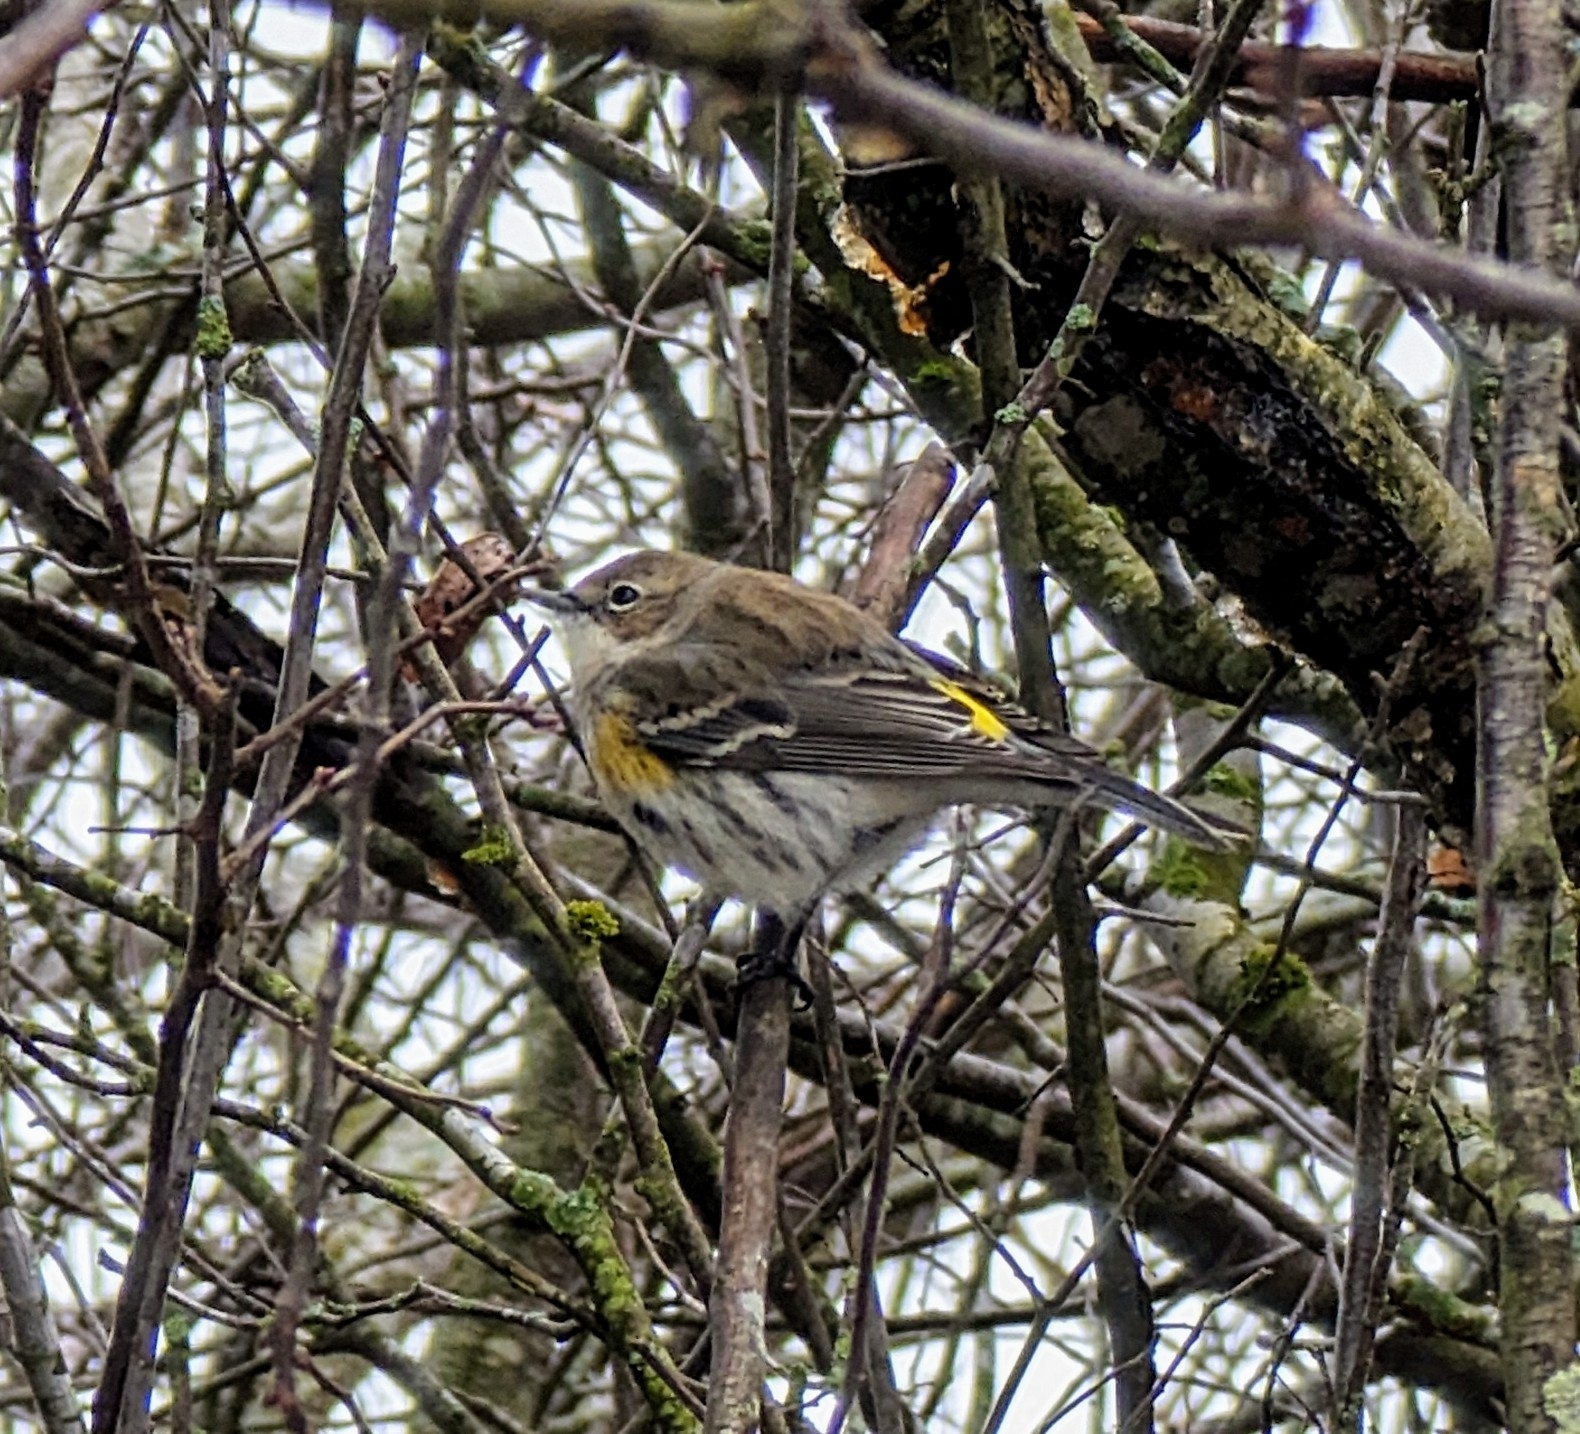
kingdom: Animalia
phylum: Chordata
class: Aves
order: Passeriformes
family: Parulidae
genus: Setophaga
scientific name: Setophaga coronata
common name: Myrtle warbler
